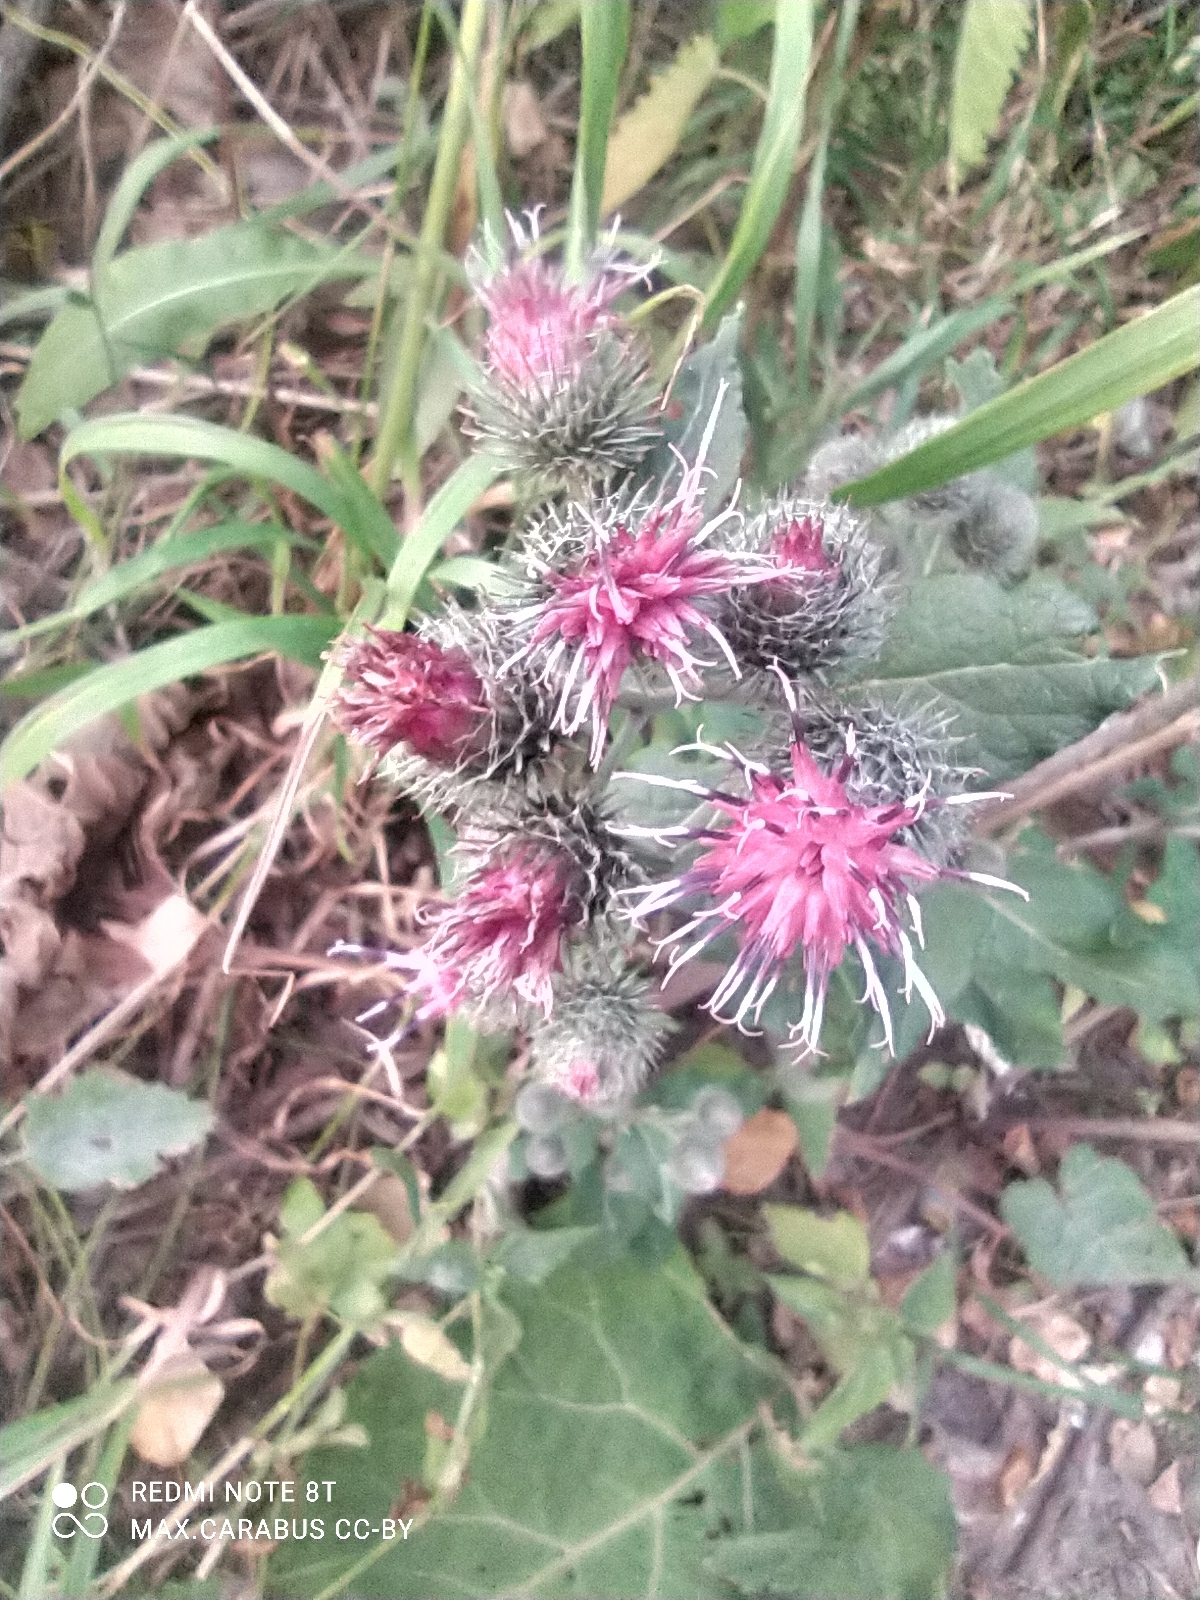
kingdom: Plantae
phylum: Tracheophyta
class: Magnoliopsida
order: Asterales
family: Asteraceae
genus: Arctium
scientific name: Arctium tomentosum
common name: Woolly burdock
